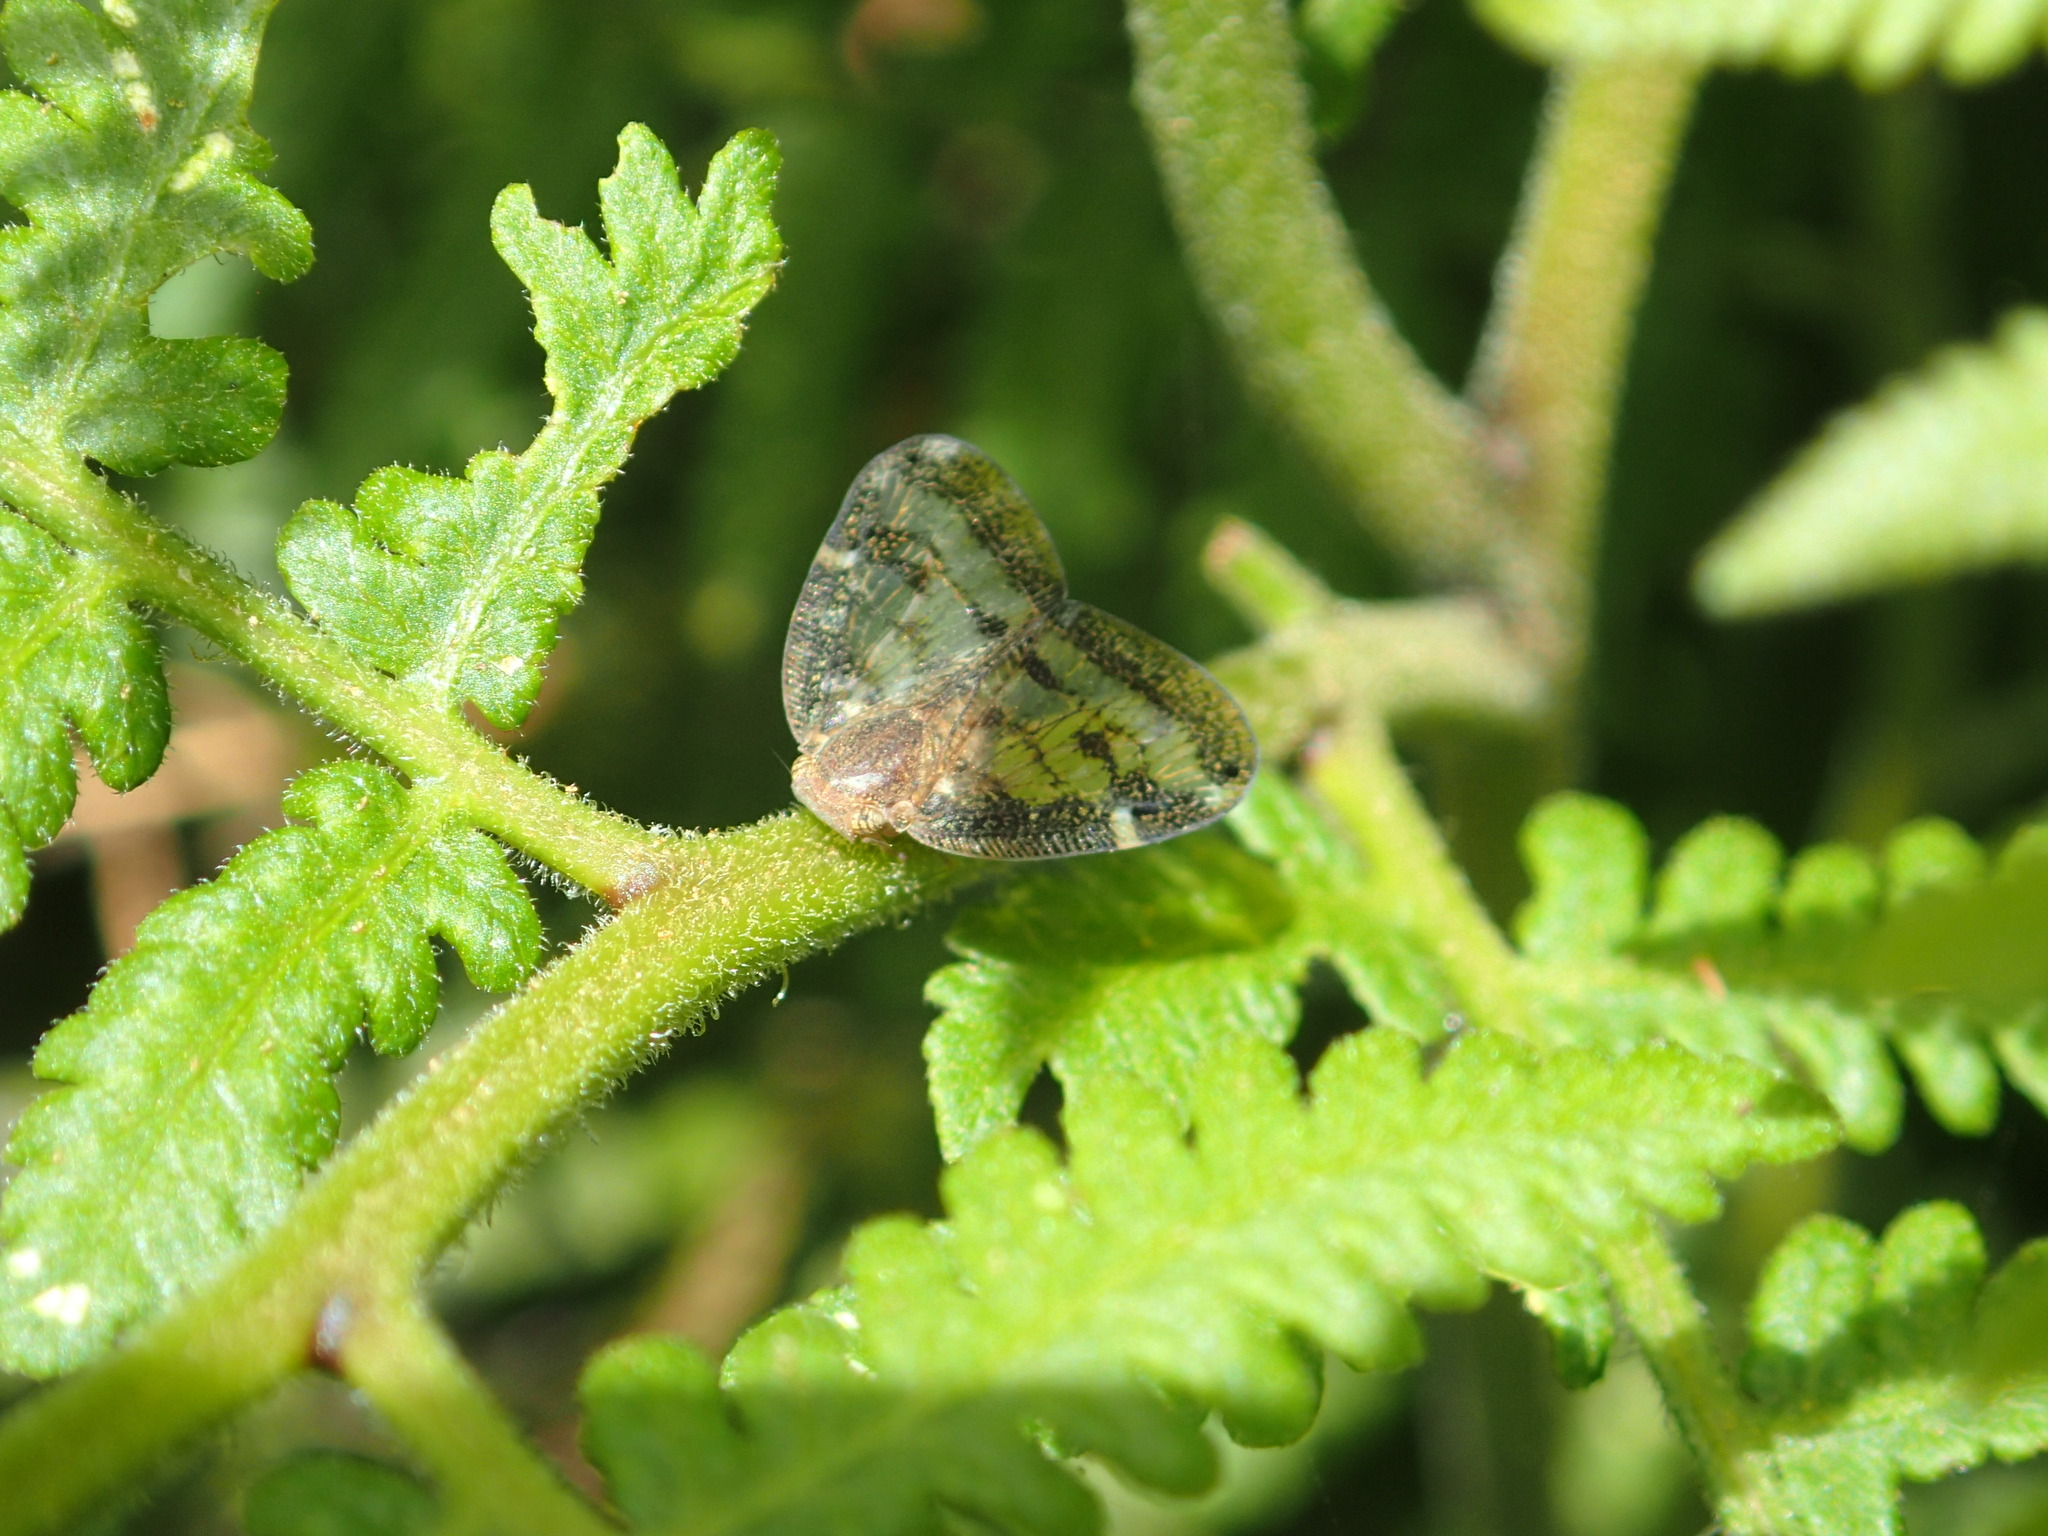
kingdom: Animalia
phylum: Arthropoda
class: Insecta
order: Hemiptera
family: Ricaniidae
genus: Scolypopa
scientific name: Scolypopa australis
